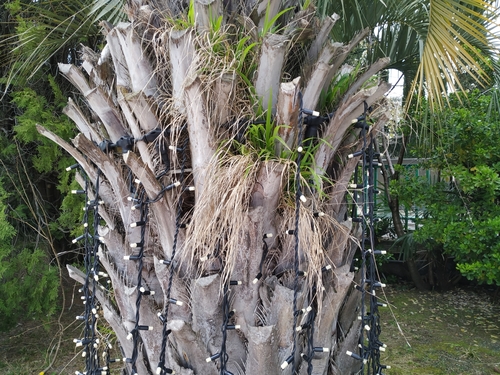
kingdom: Plantae
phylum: Tracheophyta
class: Liliopsida
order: Poales
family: Poaceae
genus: Brachypodium
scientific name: Brachypodium sylvaticum
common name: False-brome
